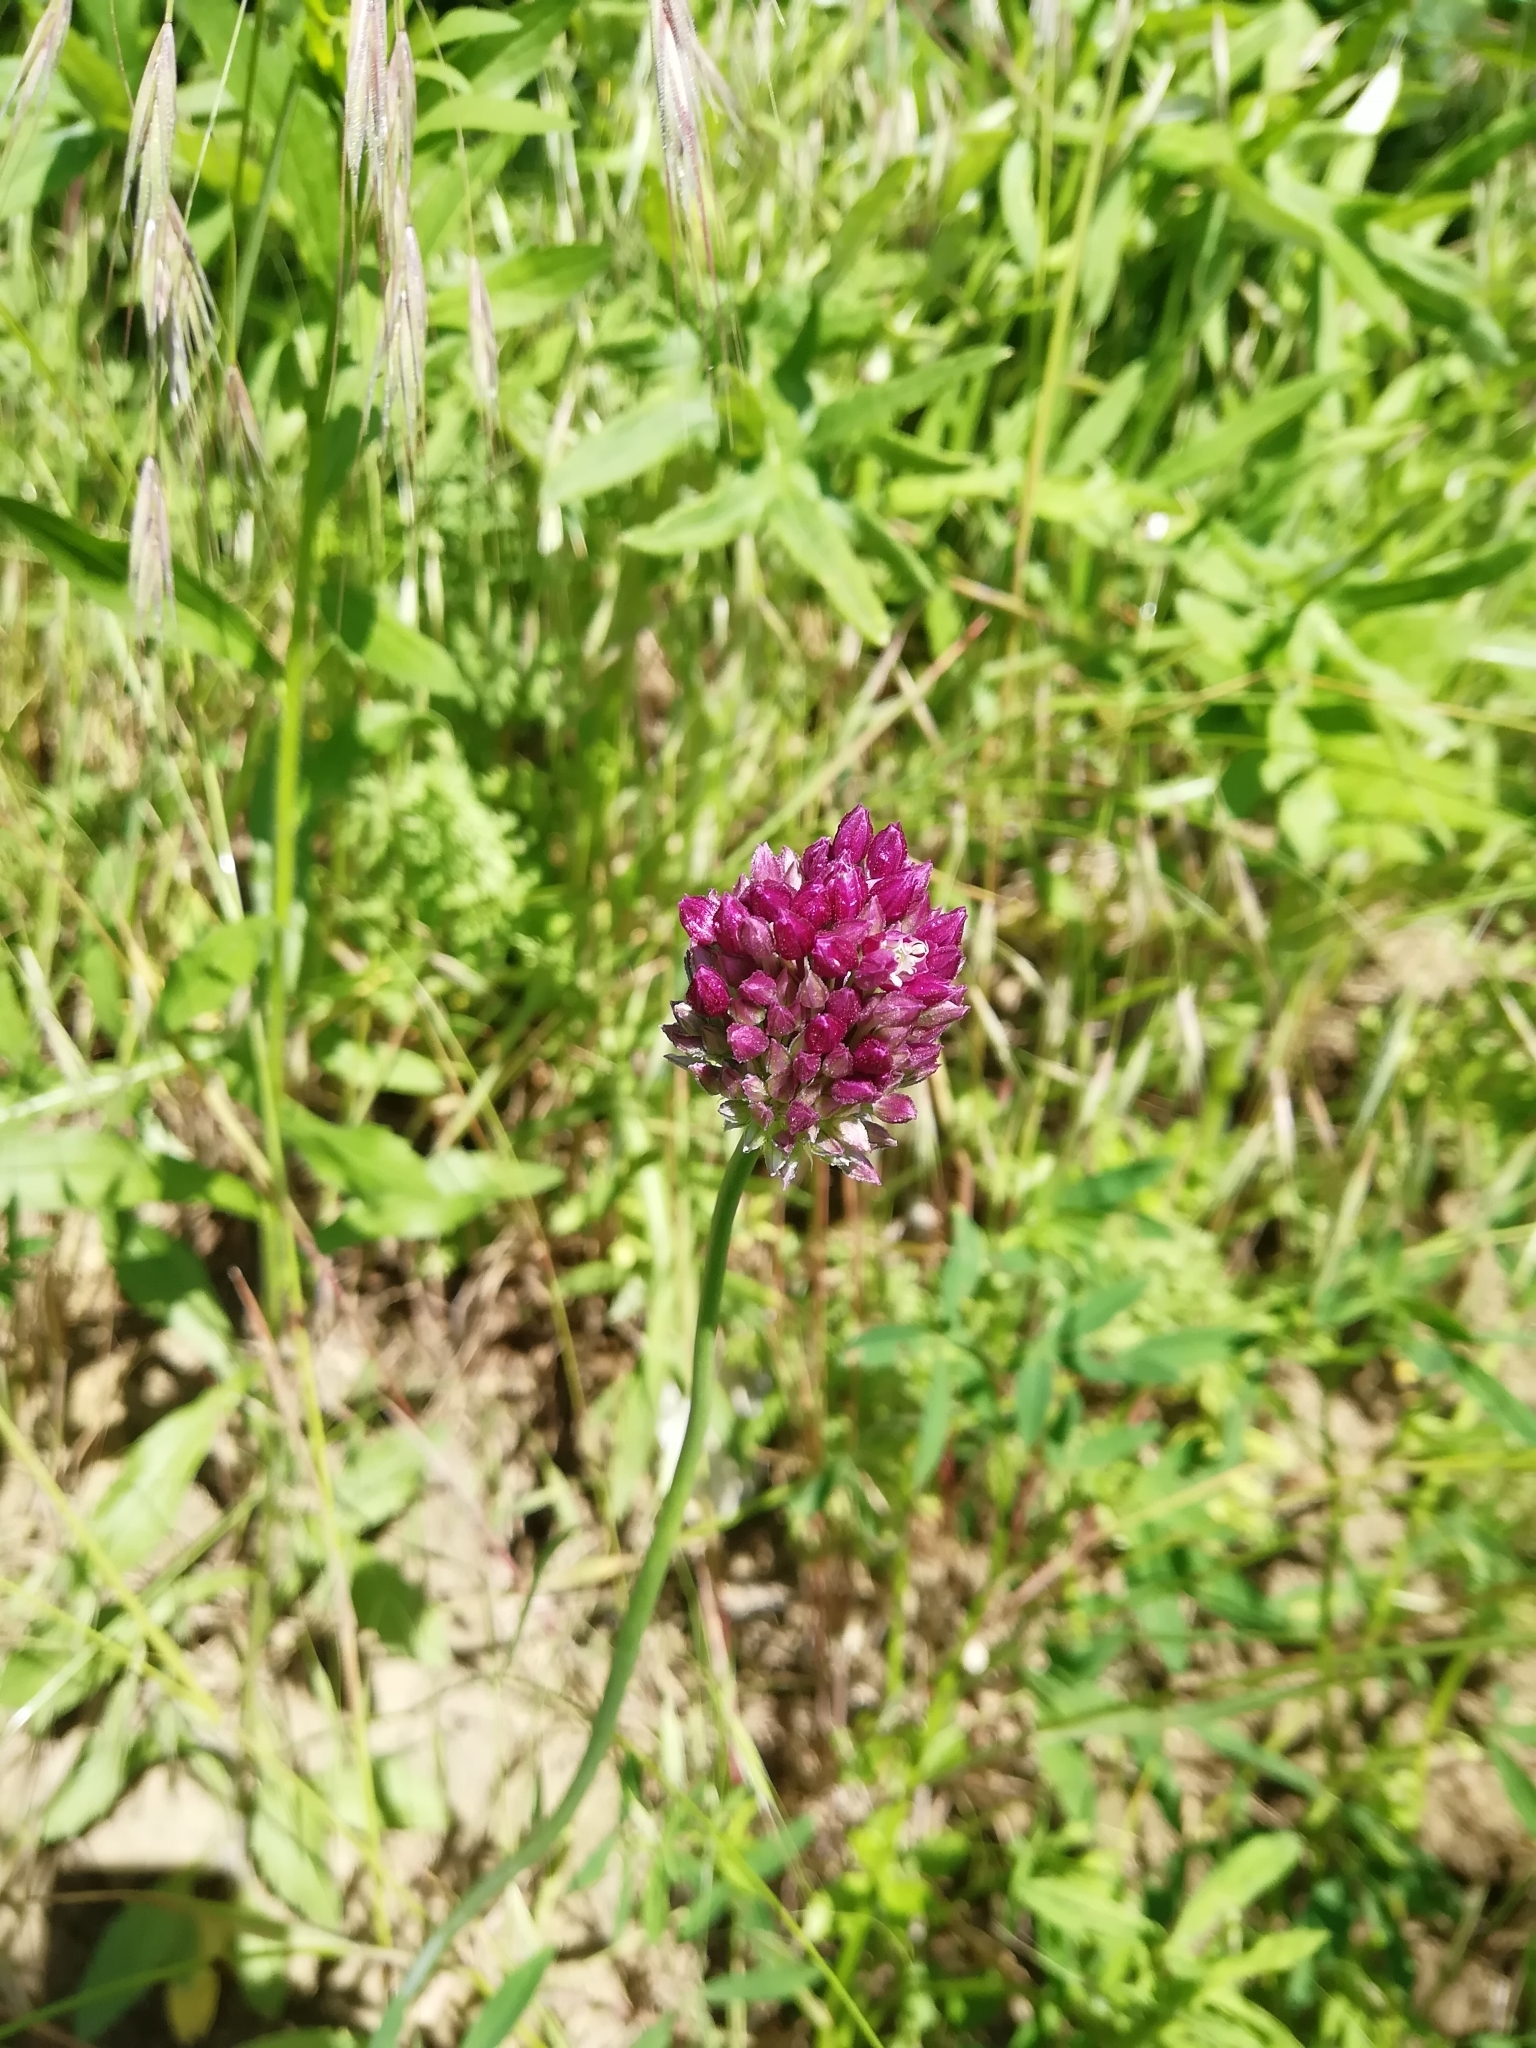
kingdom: Plantae
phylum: Tracheophyta
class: Liliopsida
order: Asparagales
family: Amaryllidaceae
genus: Allium
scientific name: Allium rotundum
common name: Sand leek
